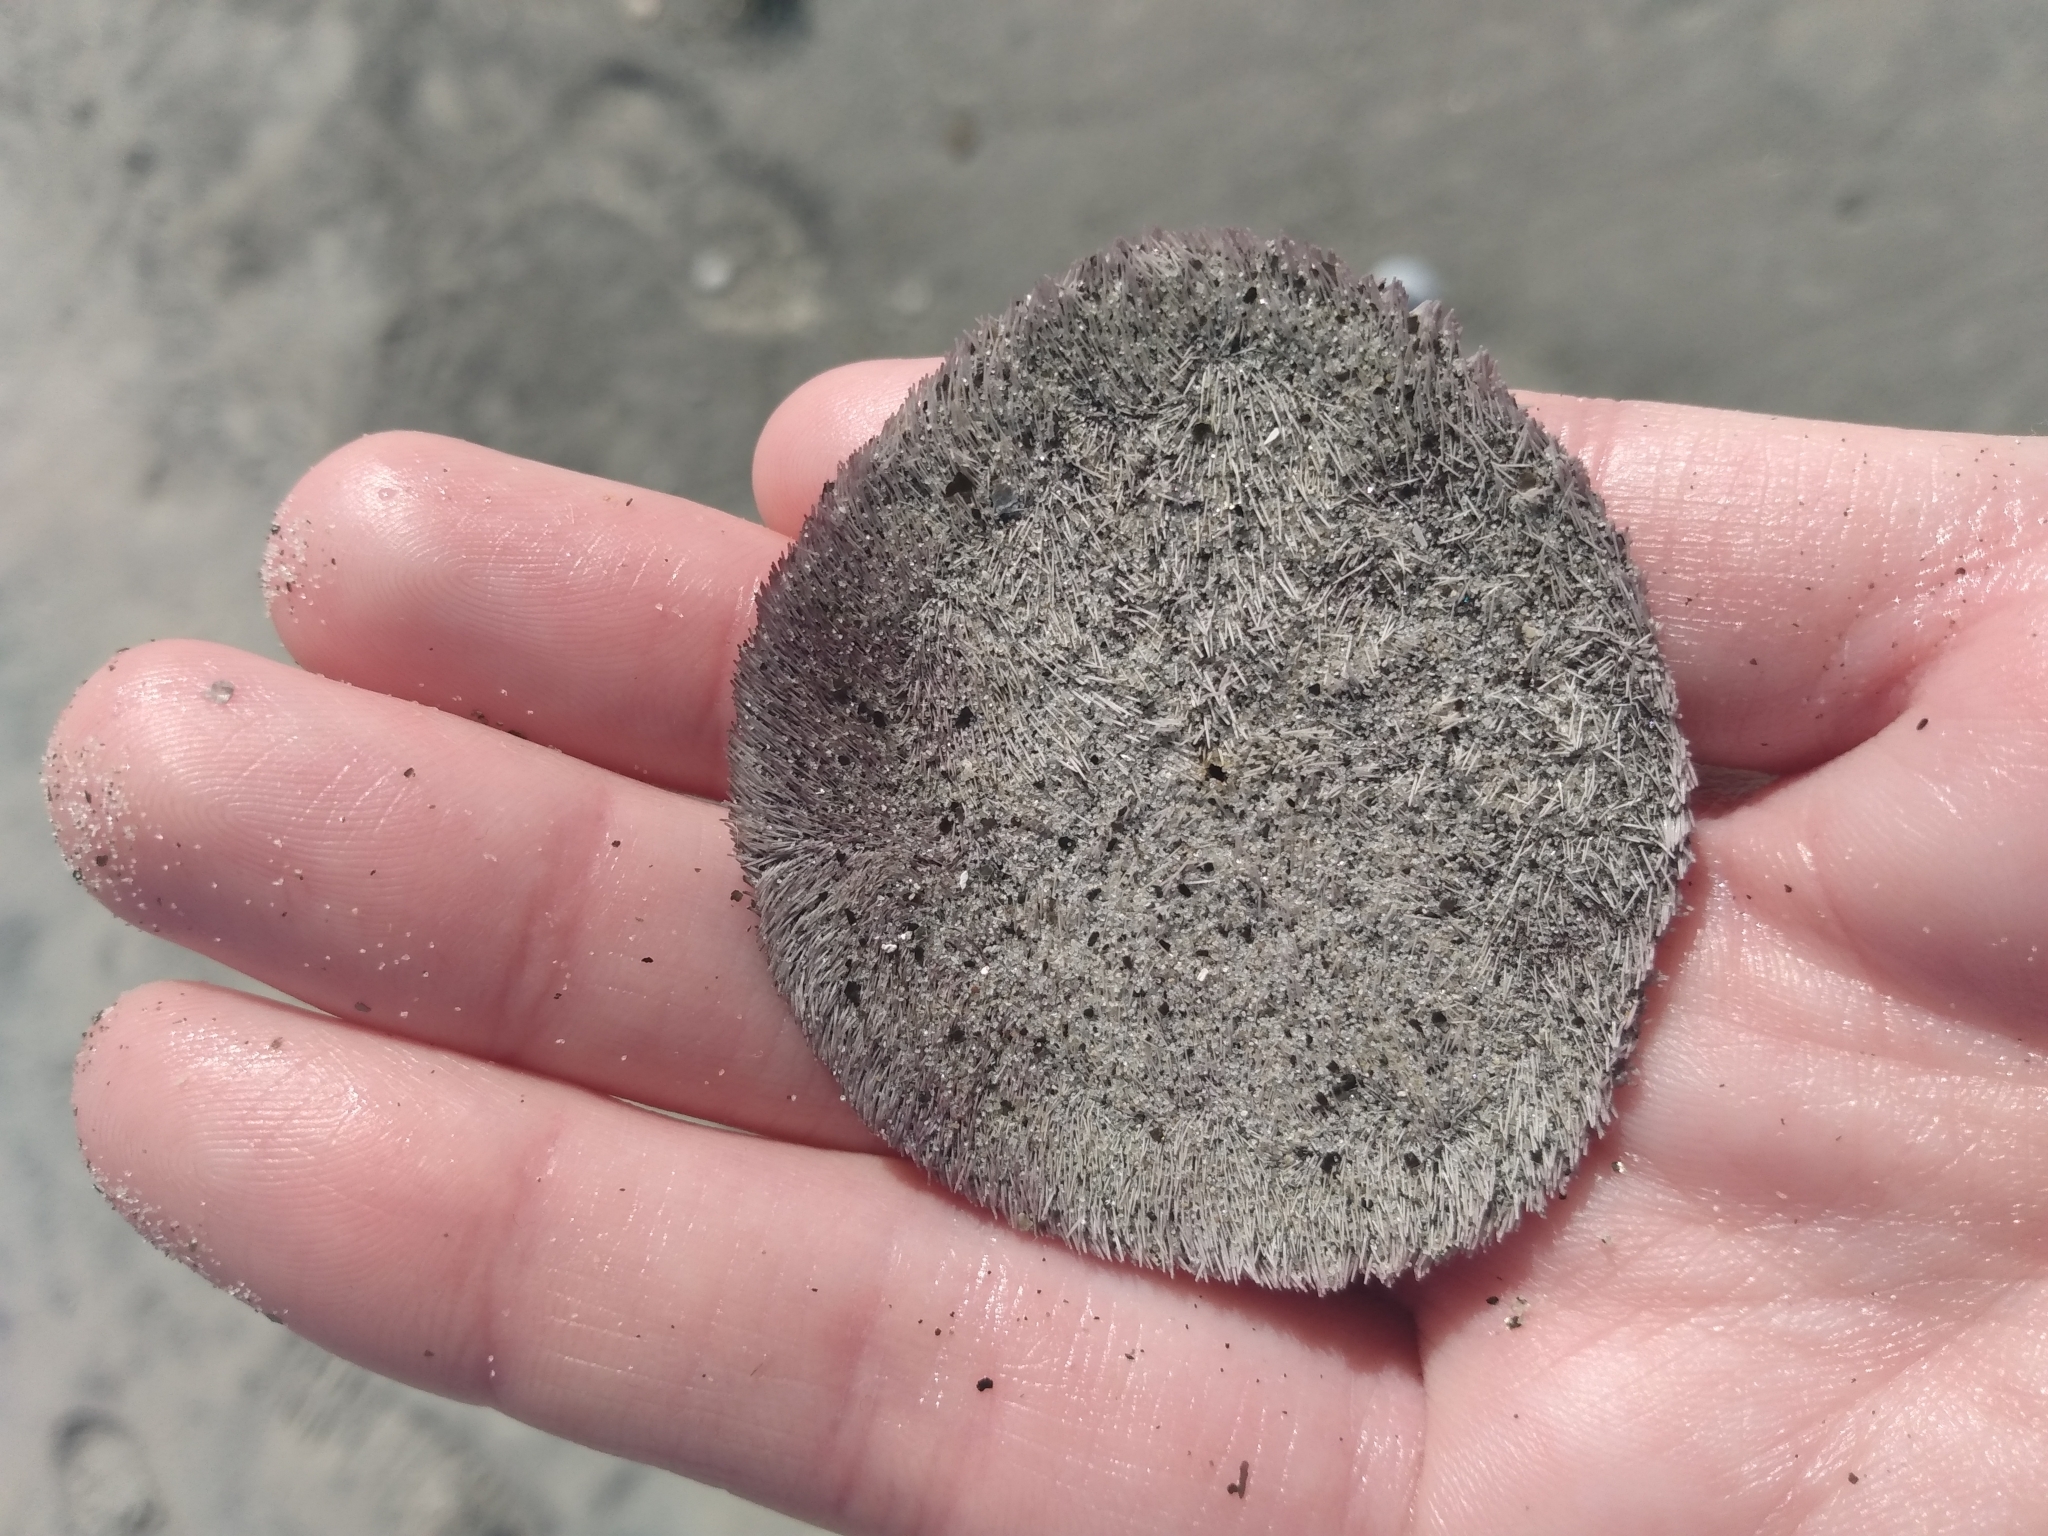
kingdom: Animalia
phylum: Echinodermata
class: Echinoidea
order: Echinolampadacea
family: Dendrasteridae
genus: Dendraster
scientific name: Dendraster excentricus
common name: Eccentric sand dollar sea urchin
